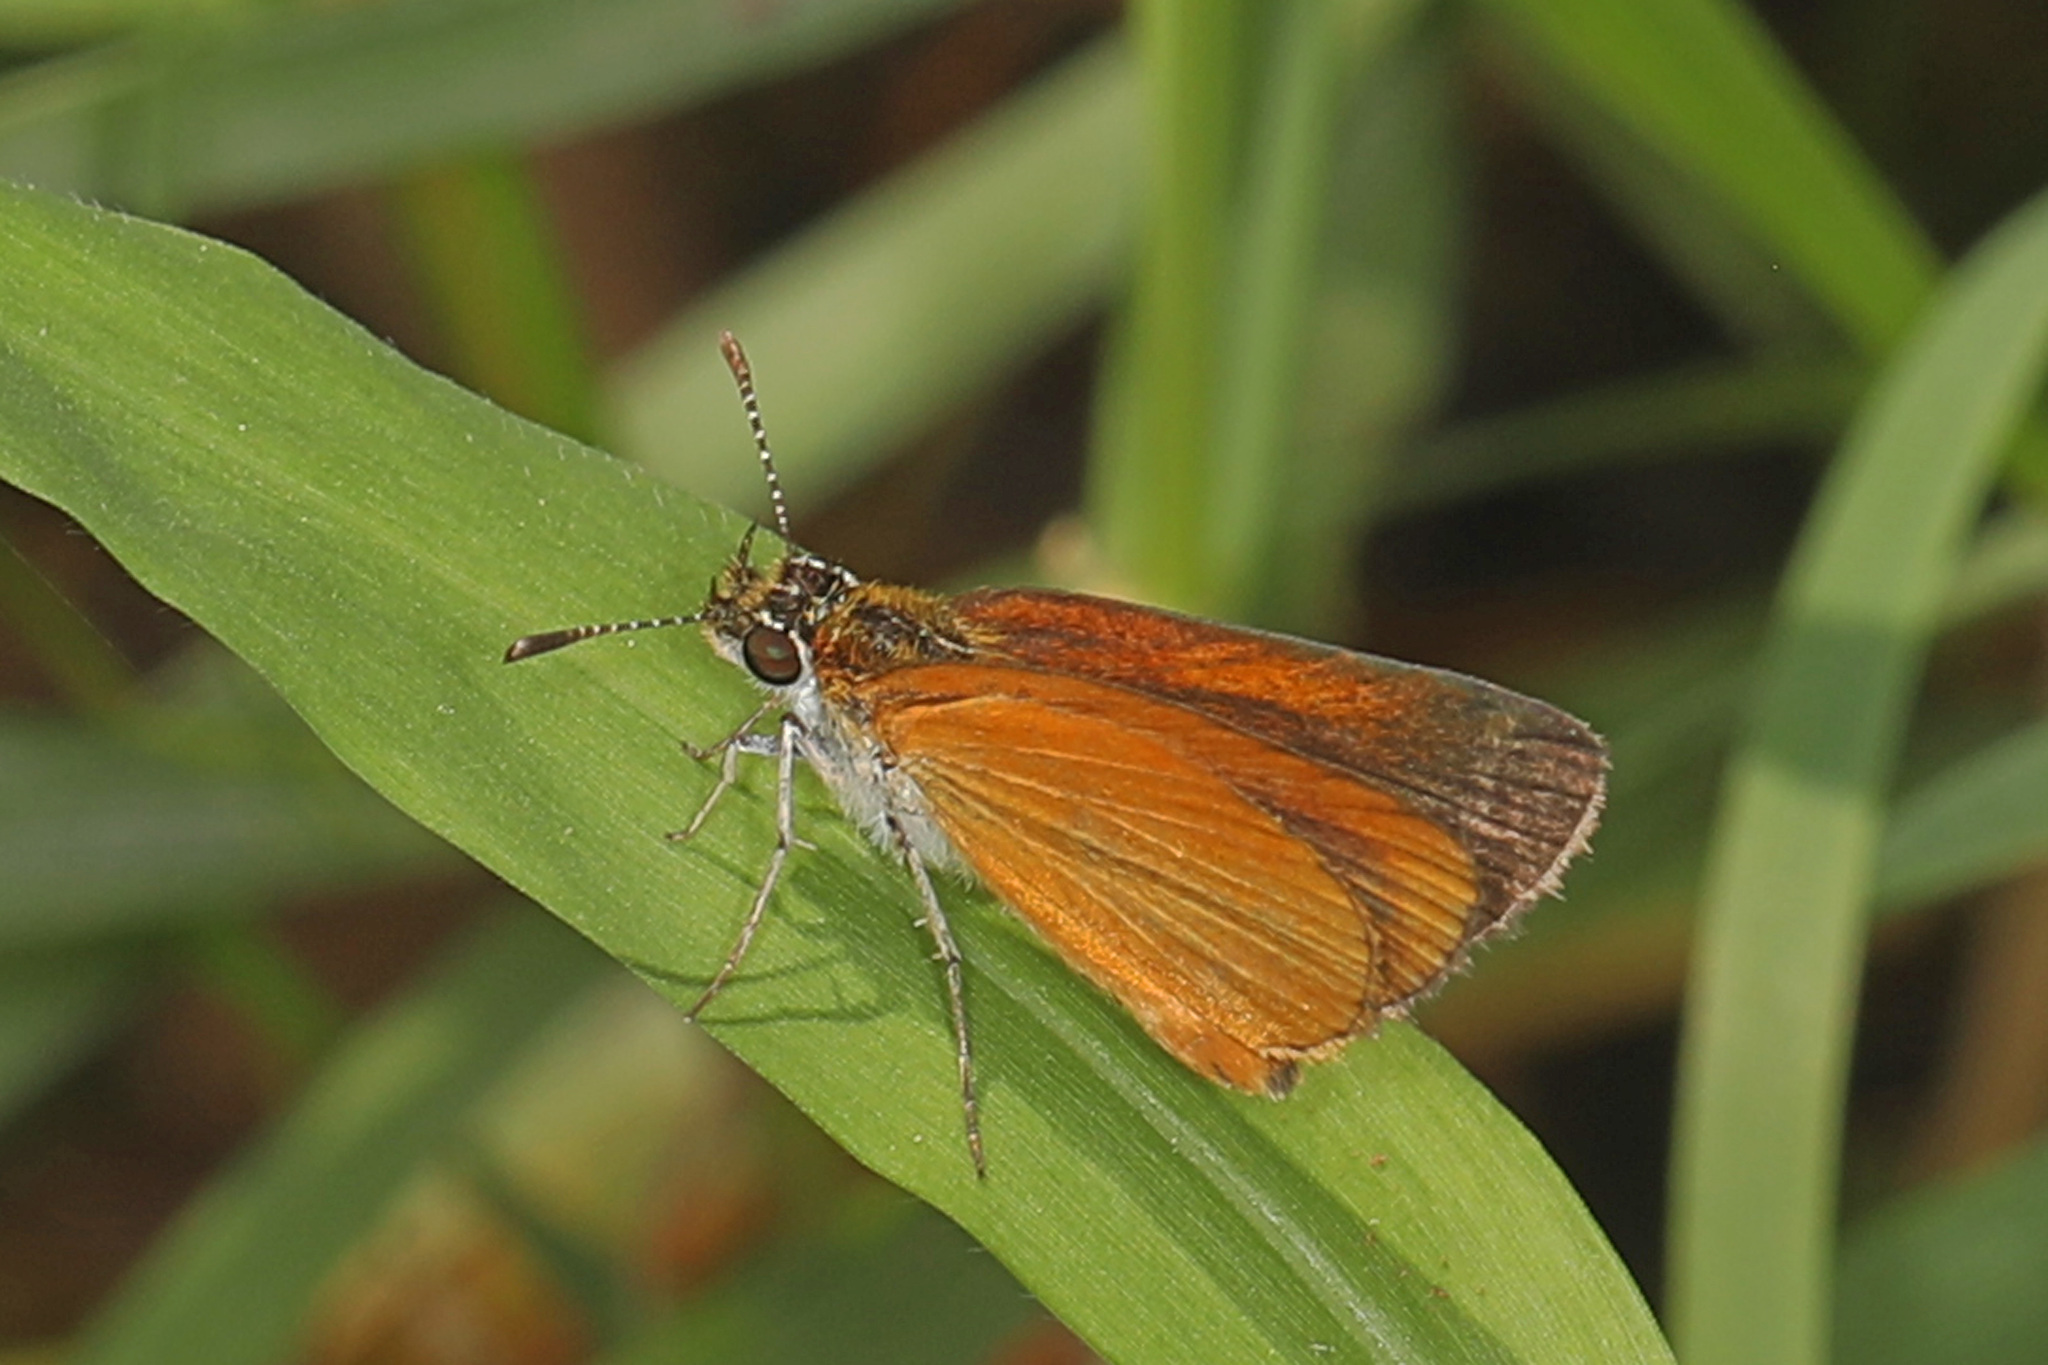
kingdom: Animalia
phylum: Arthropoda
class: Insecta
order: Lepidoptera
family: Hesperiidae
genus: Ancyloxypha
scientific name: Ancyloxypha numitor
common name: Least skipper
